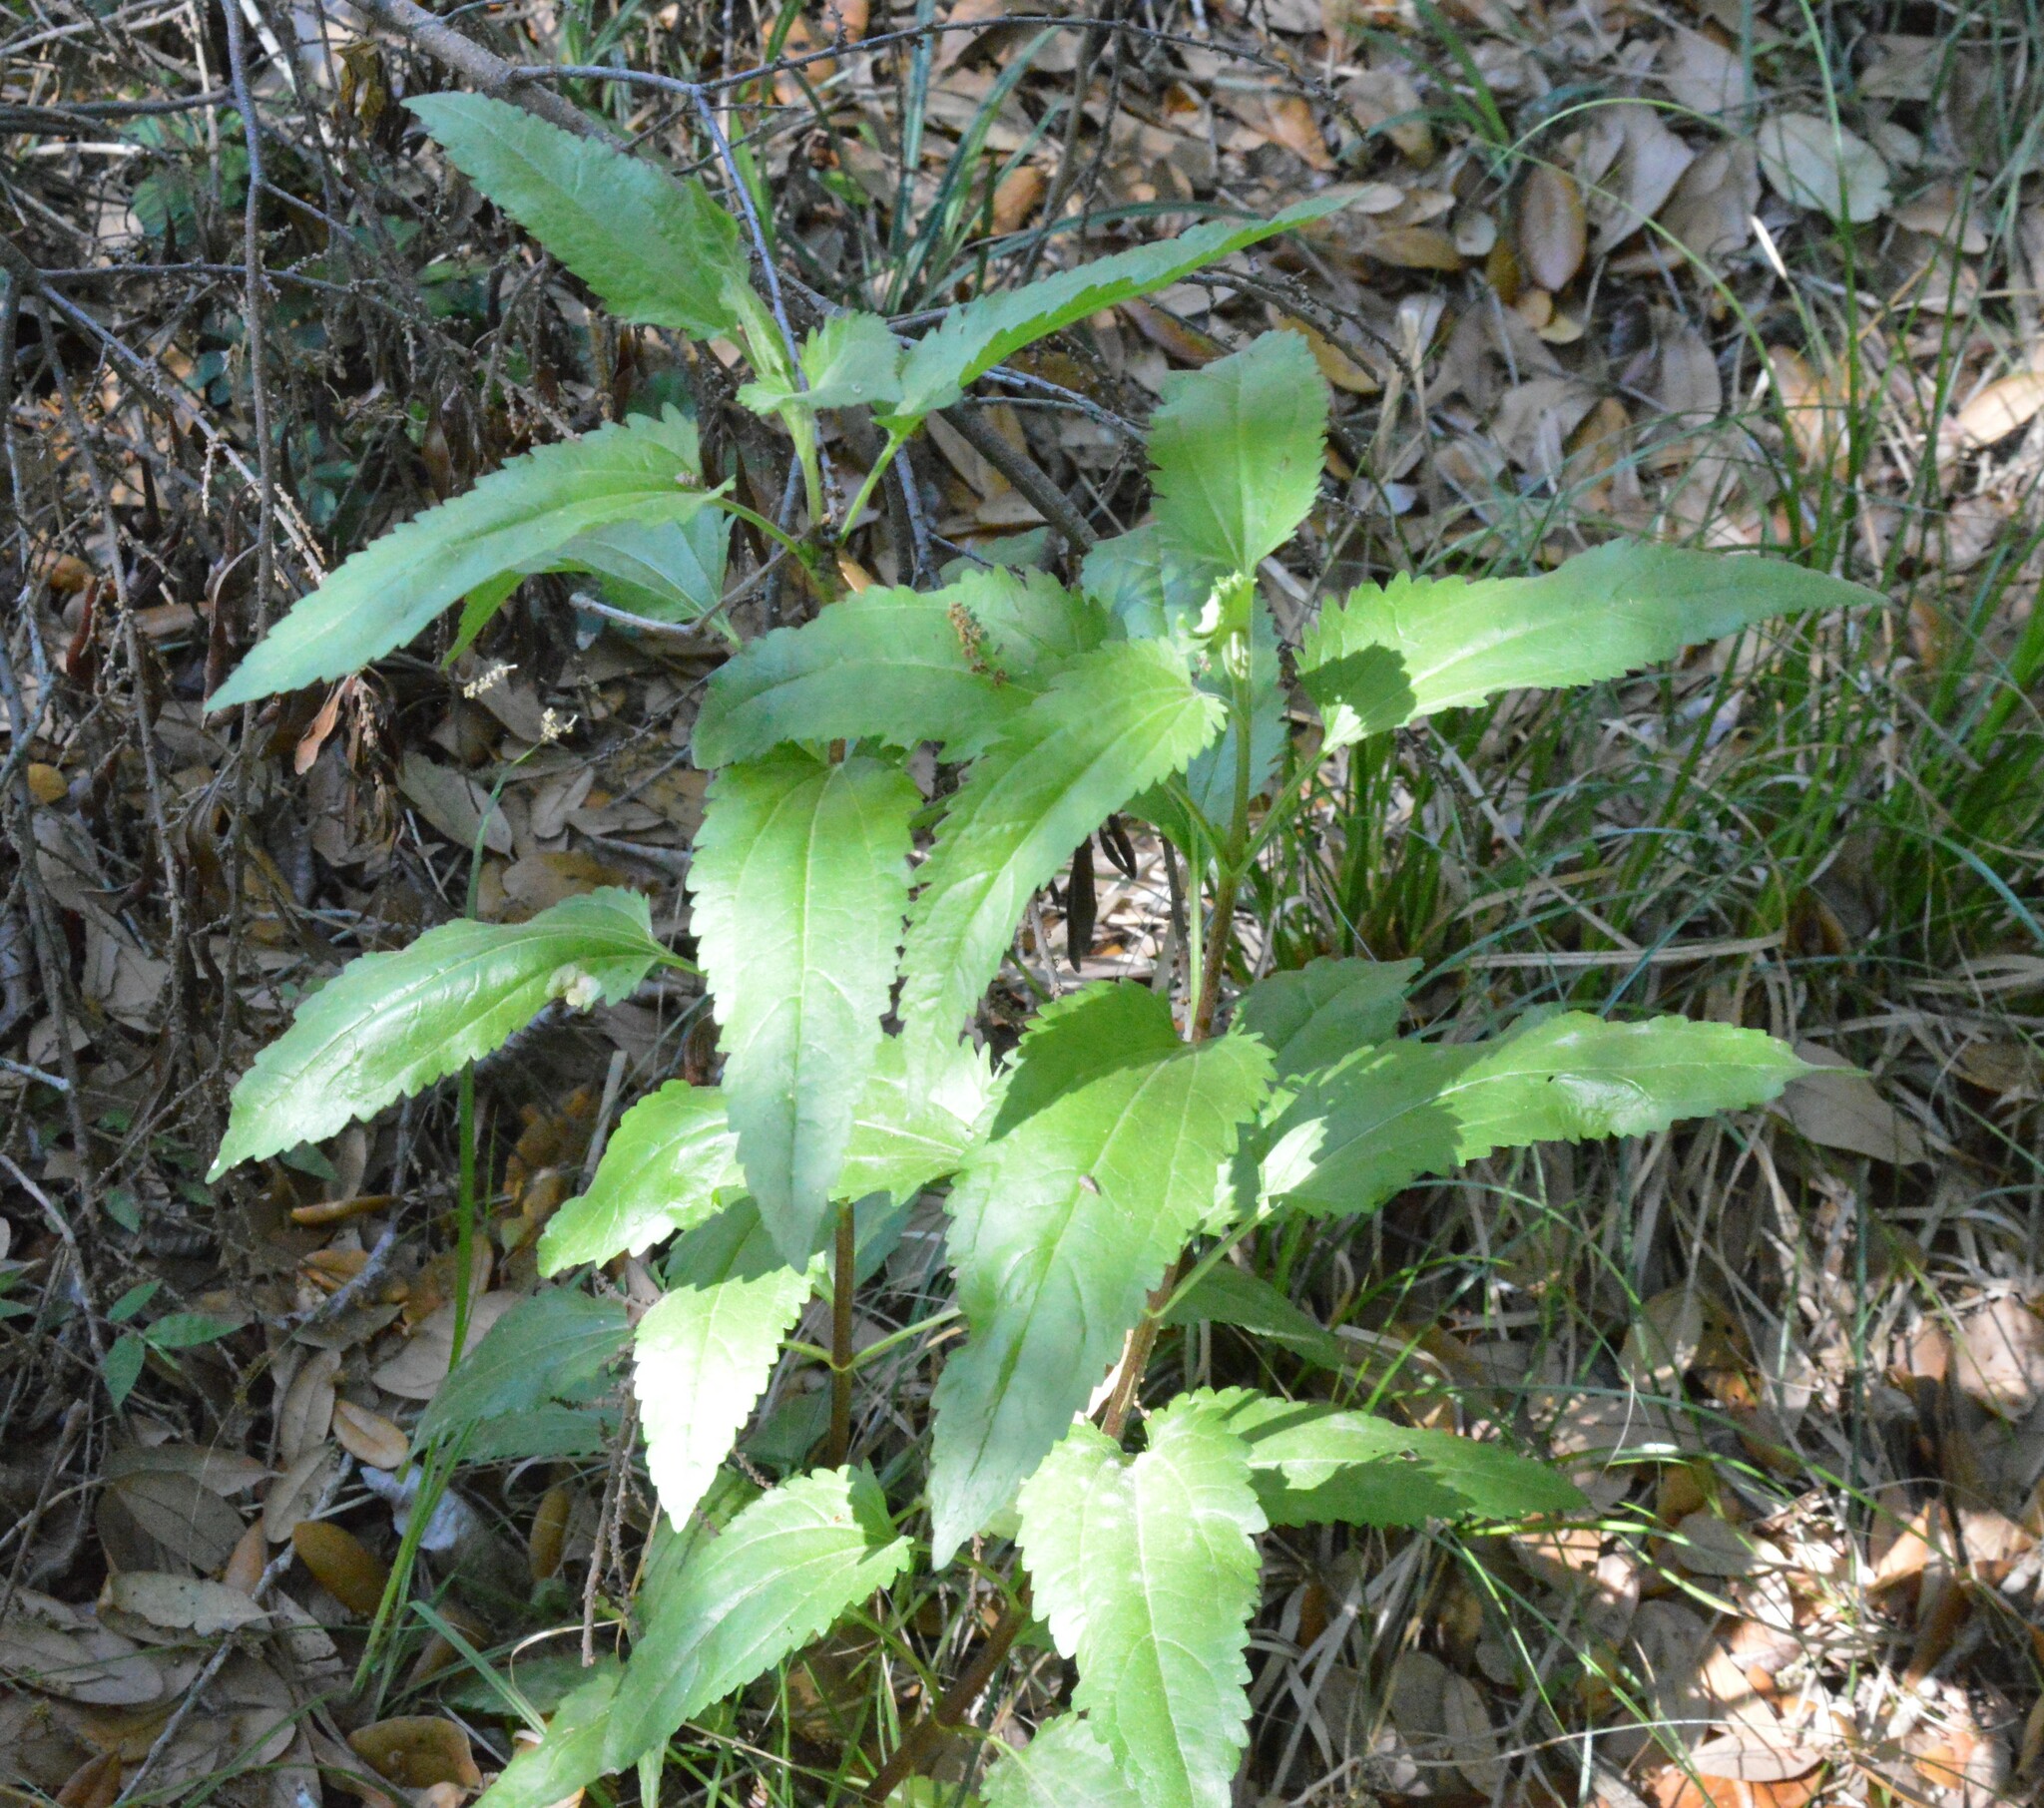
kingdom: Plantae
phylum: Tracheophyta
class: Magnoliopsida
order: Asterales
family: Asteraceae
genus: Eupatorium
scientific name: Eupatorium serotinum
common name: Late boneset
